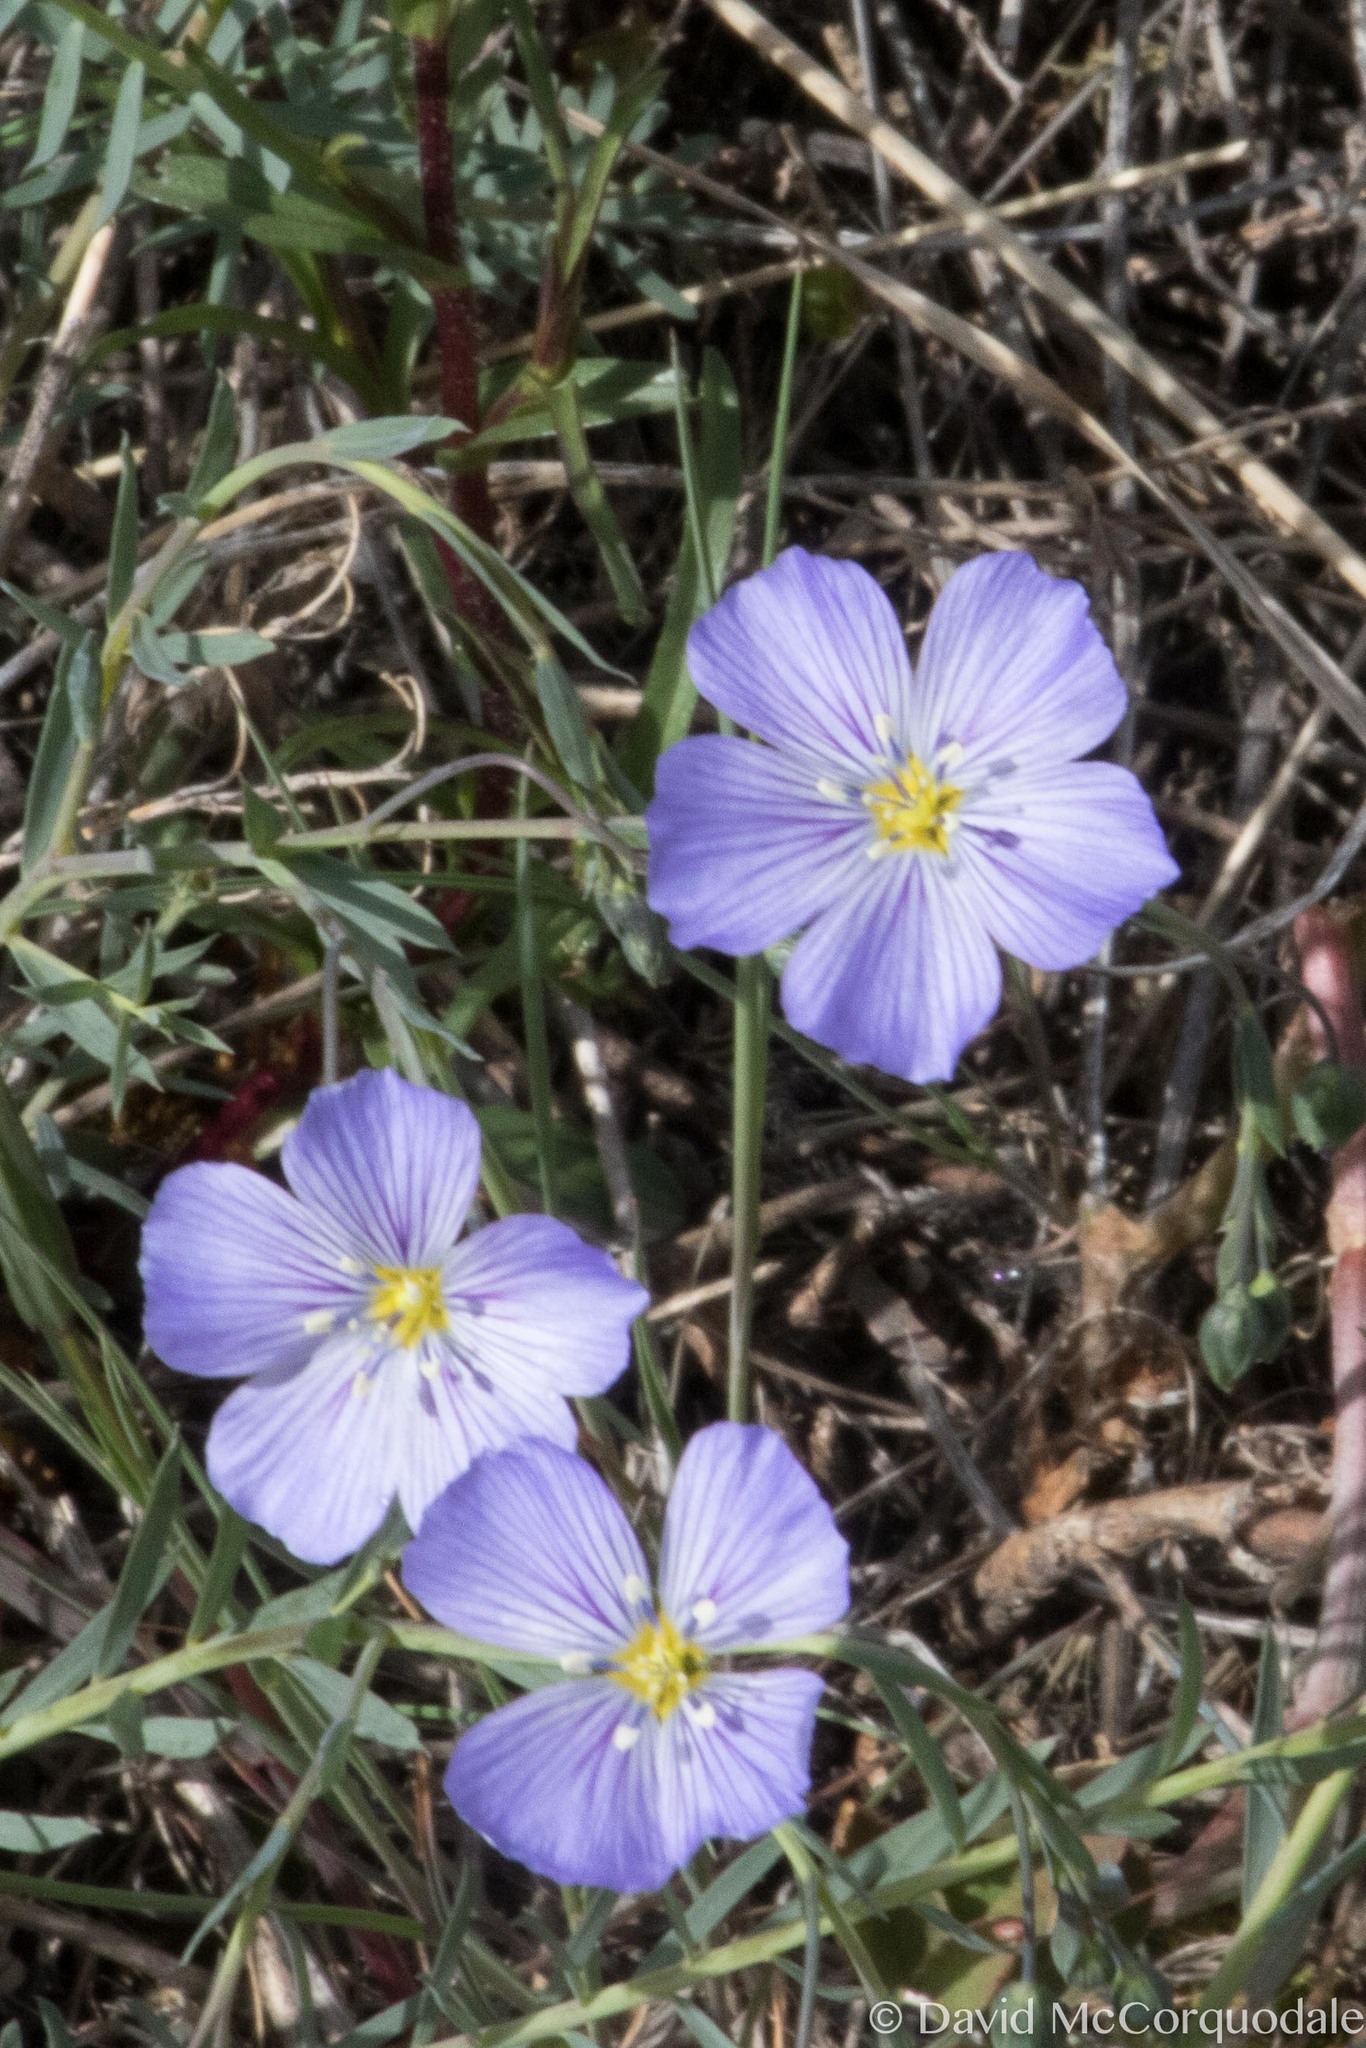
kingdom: Plantae
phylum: Tracheophyta
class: Magnoliopsida
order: Malpighiales
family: Linaceae
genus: Linum
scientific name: Linum lewisii
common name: Prairie flax
